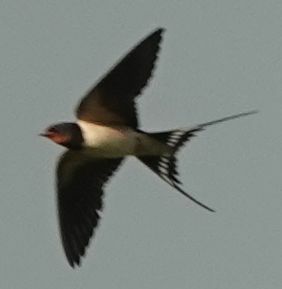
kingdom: Animalia
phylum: Chordata
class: Aves
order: Passeriformes
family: Hirundinidae
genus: Hirundo
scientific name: Hirundo rustica
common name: Barn swallow
